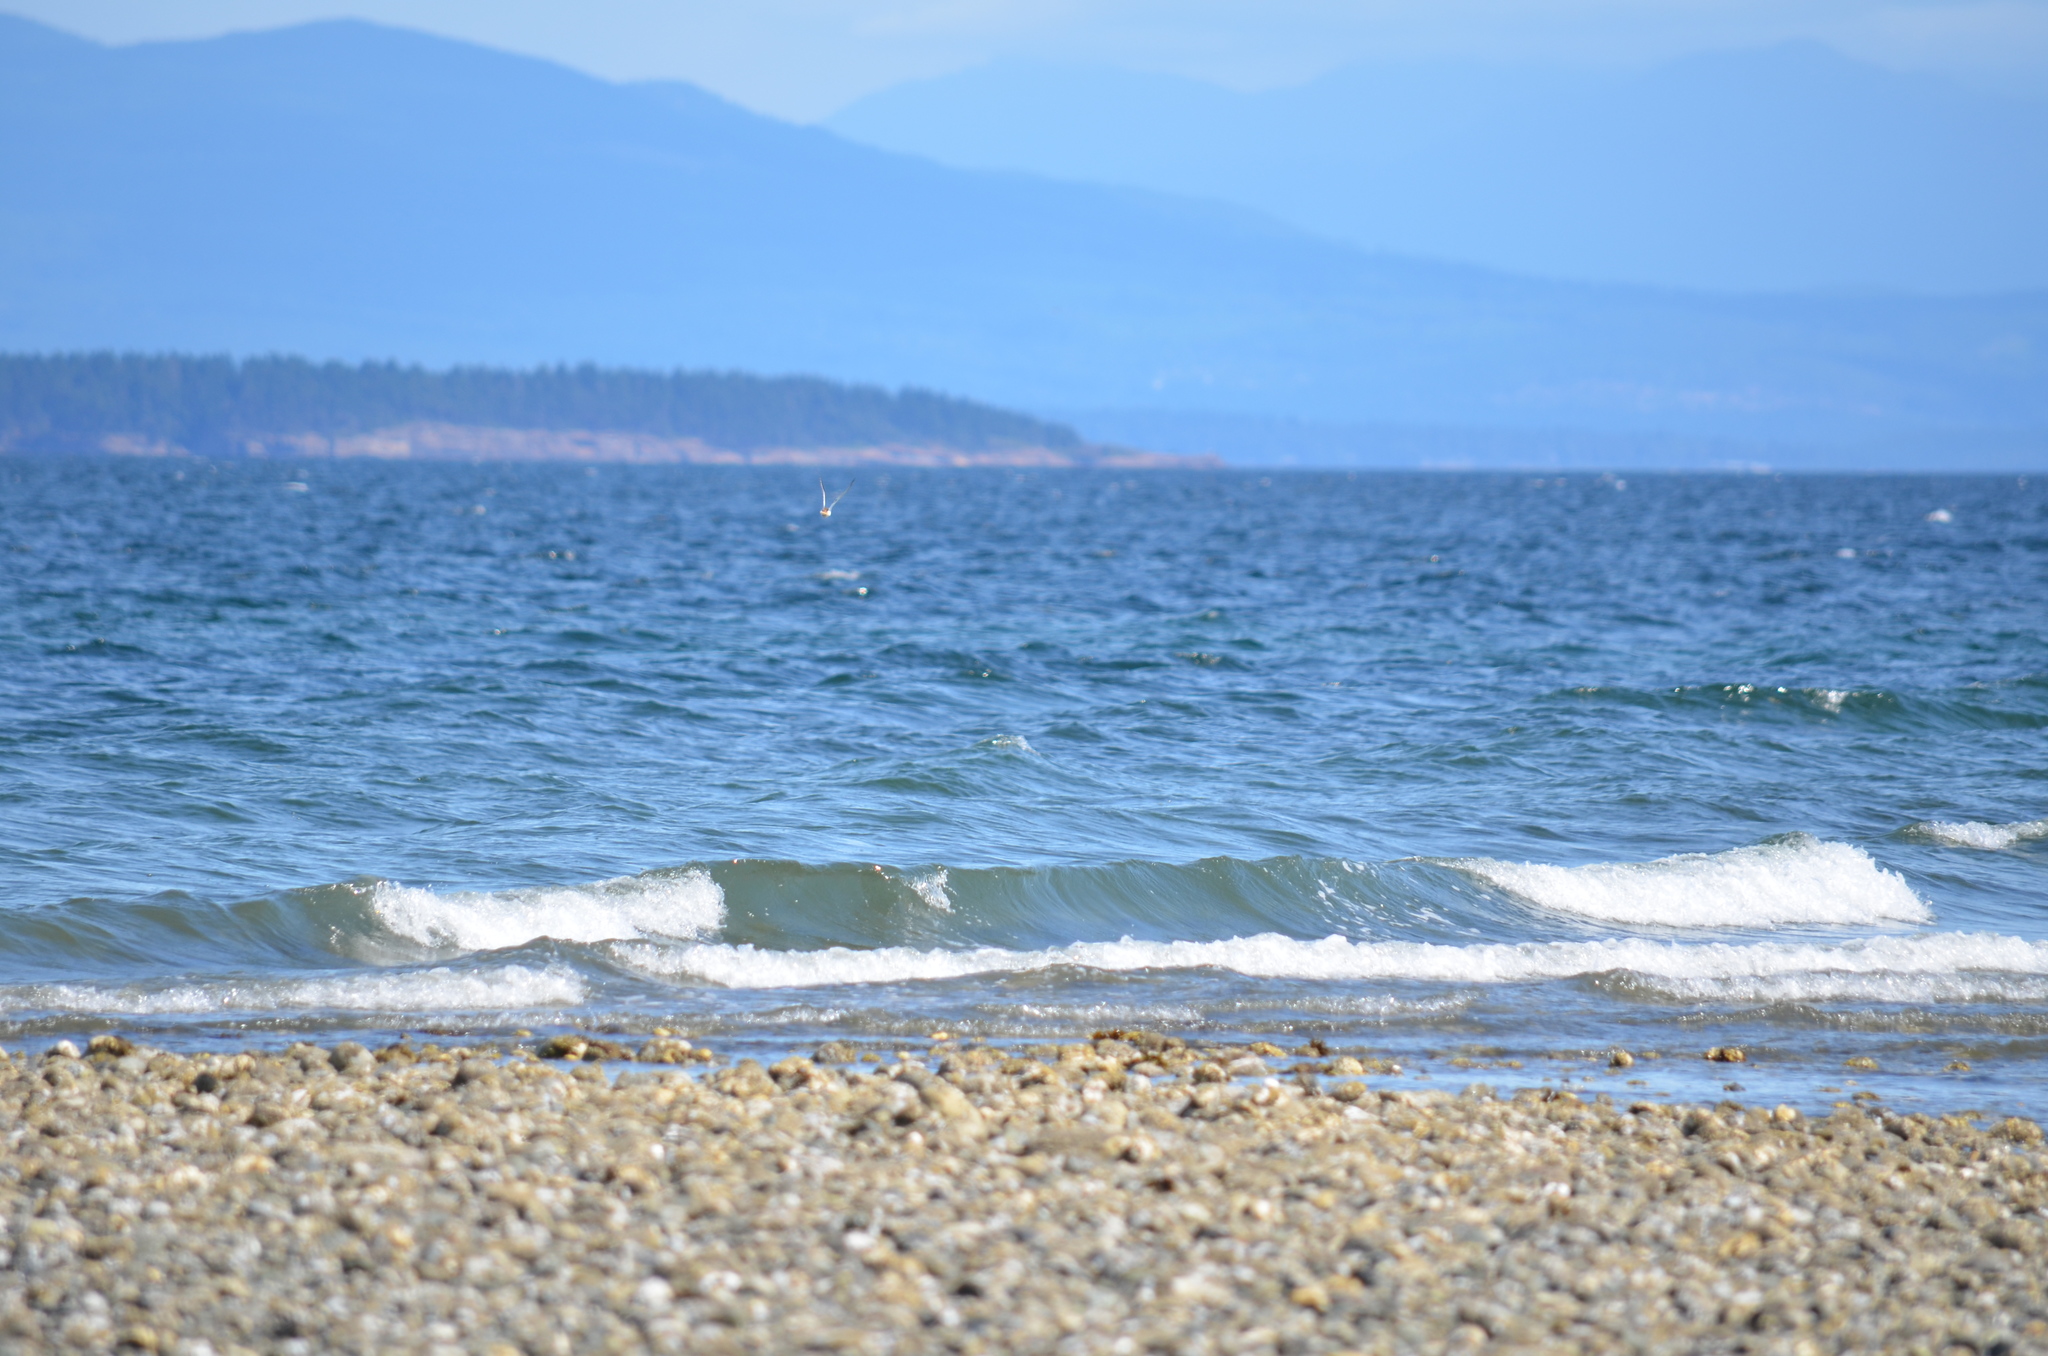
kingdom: Animalia
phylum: Chordata
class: Aves
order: Charadriiformes
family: Charadriidae
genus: Charadrius
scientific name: Charadrius vociferus
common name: Killdeer
